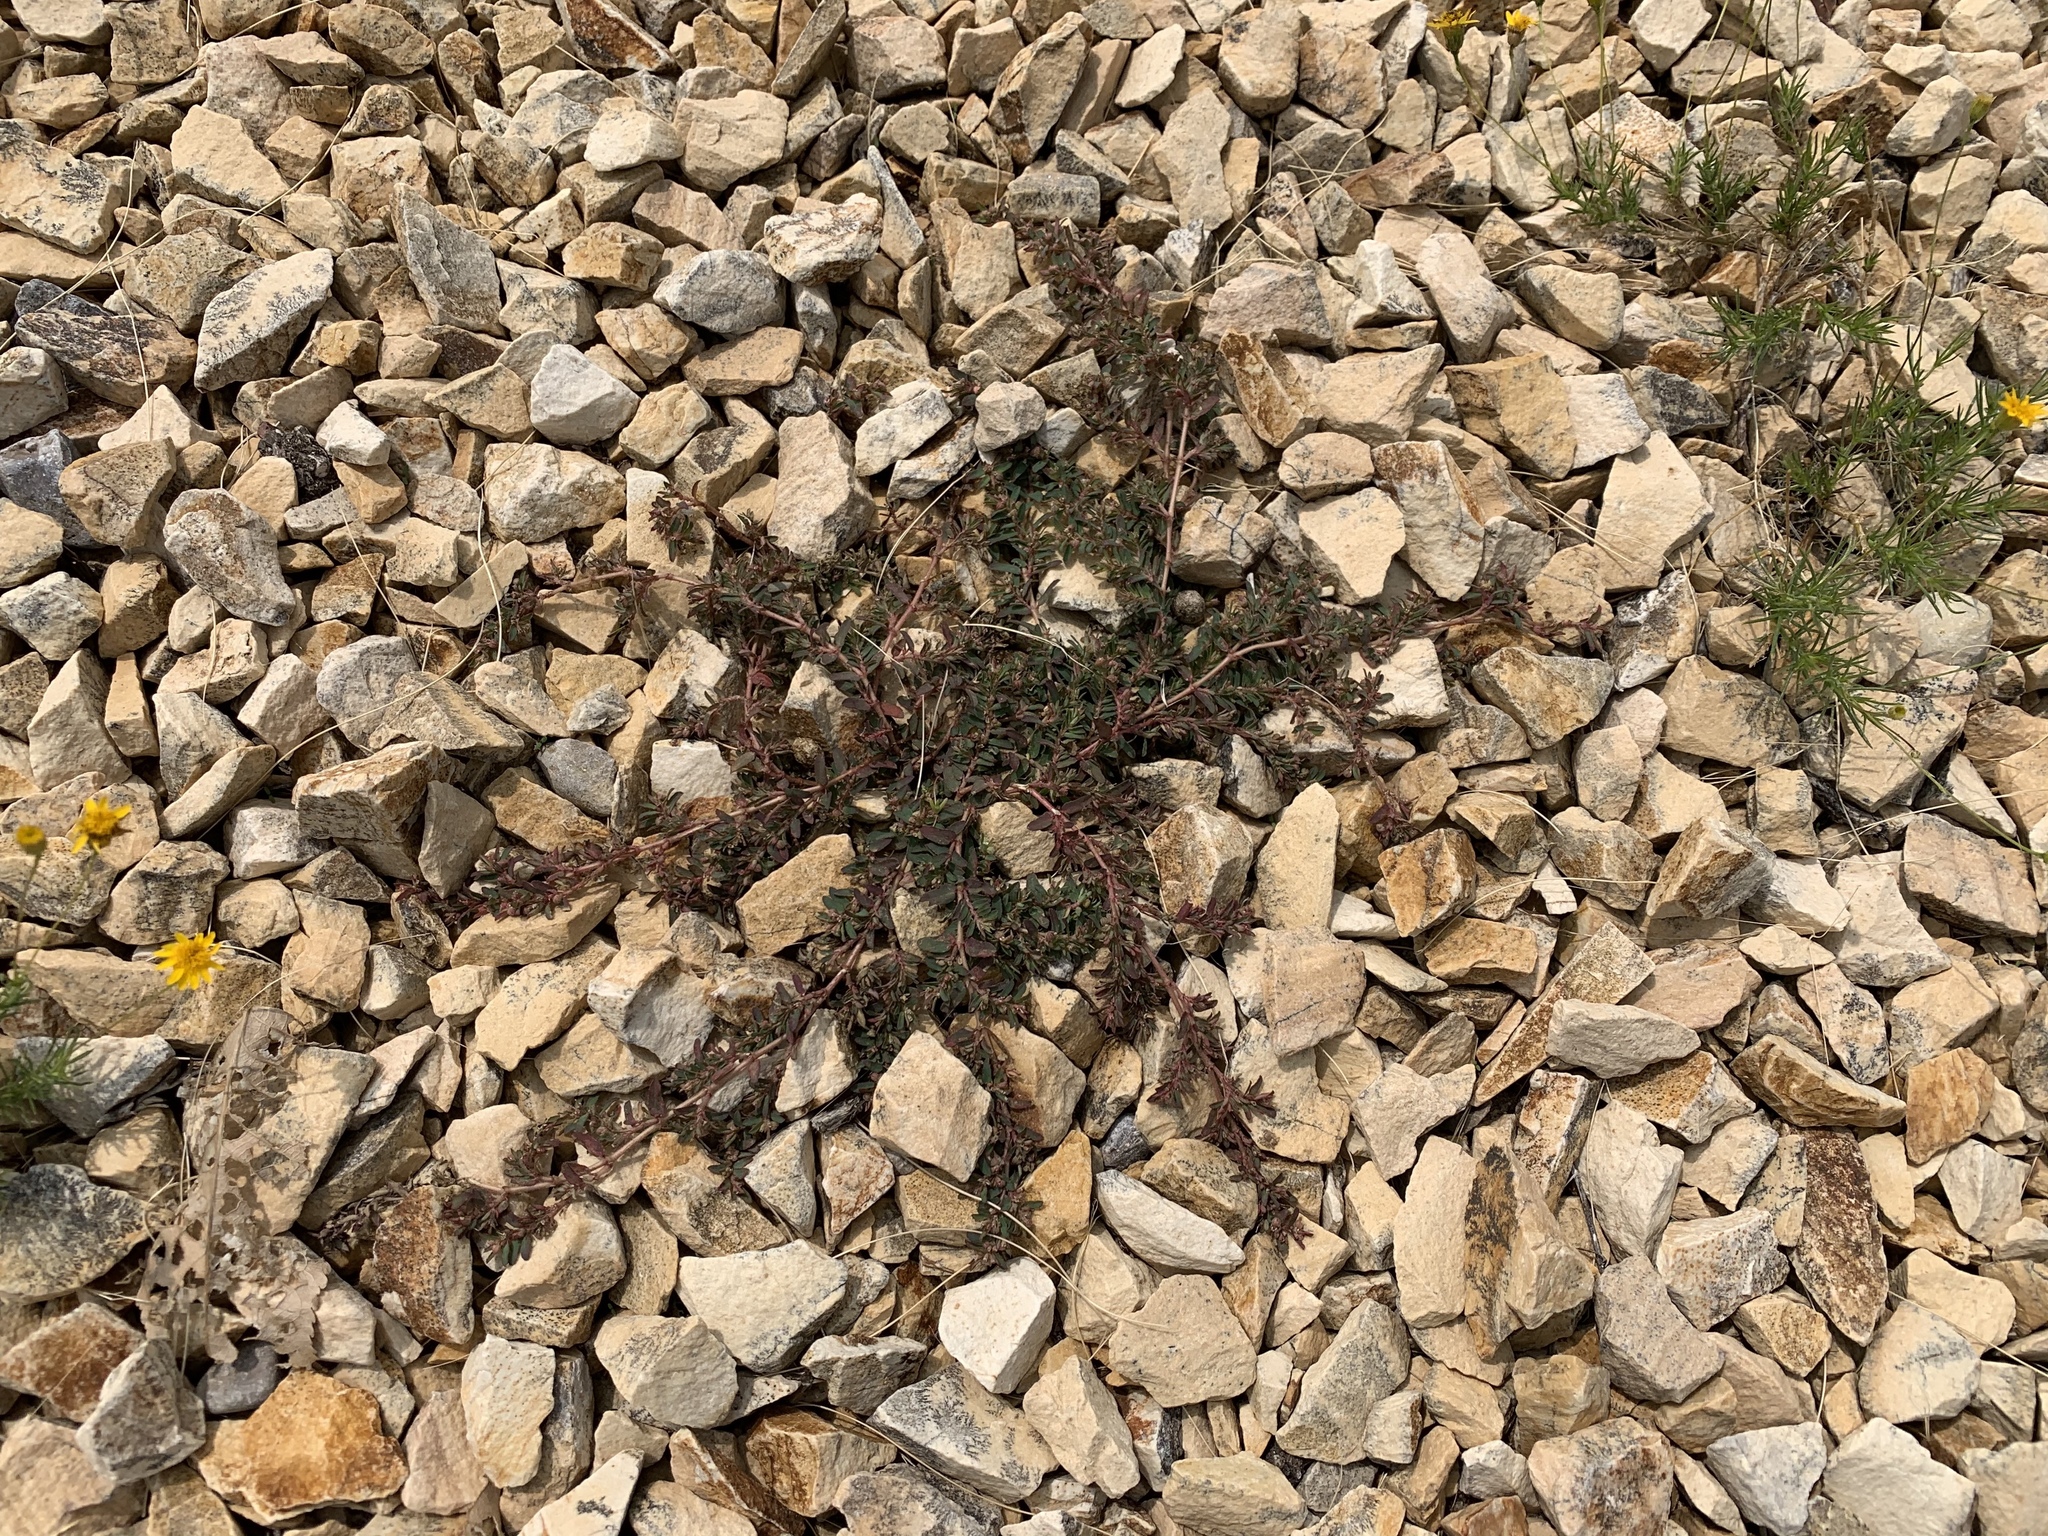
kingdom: Plantae
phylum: Tracheophyta
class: Magnoliopsida
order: Malpighiales
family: Euphorbiaceae
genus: Euphorbia
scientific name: Euphorbia maculata
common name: Spotted spurge
